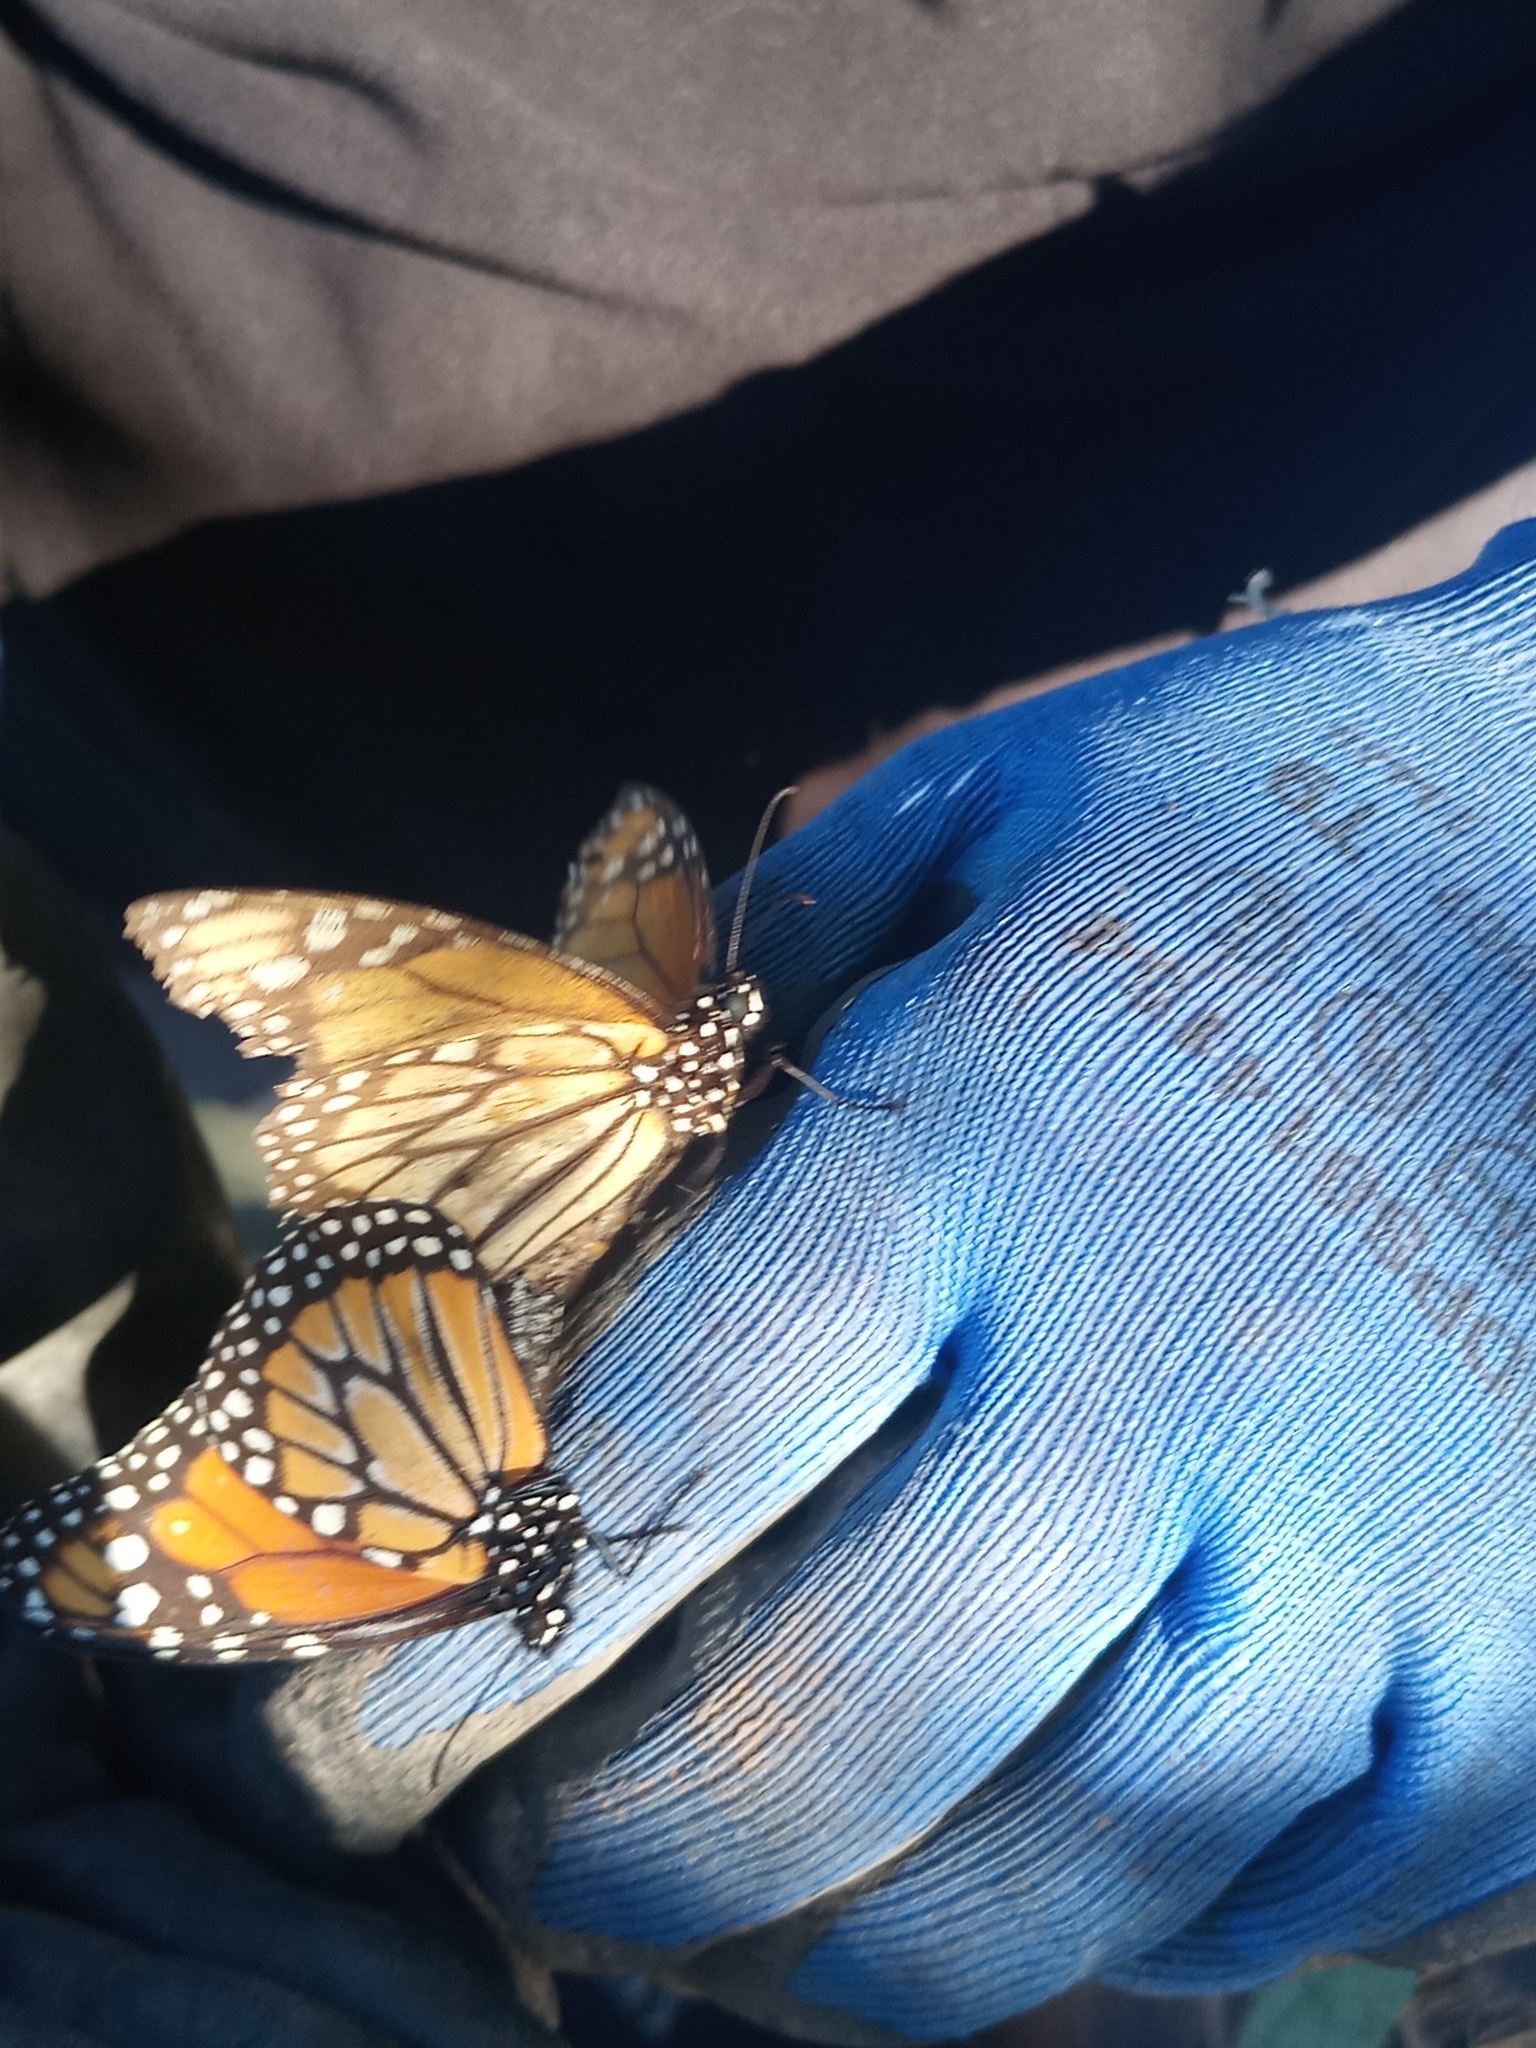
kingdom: Animalia
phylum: Arthropoda
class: Insecta
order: Lepidoptera
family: Nymphalidae
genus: Danaus
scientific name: Danaus erippus
